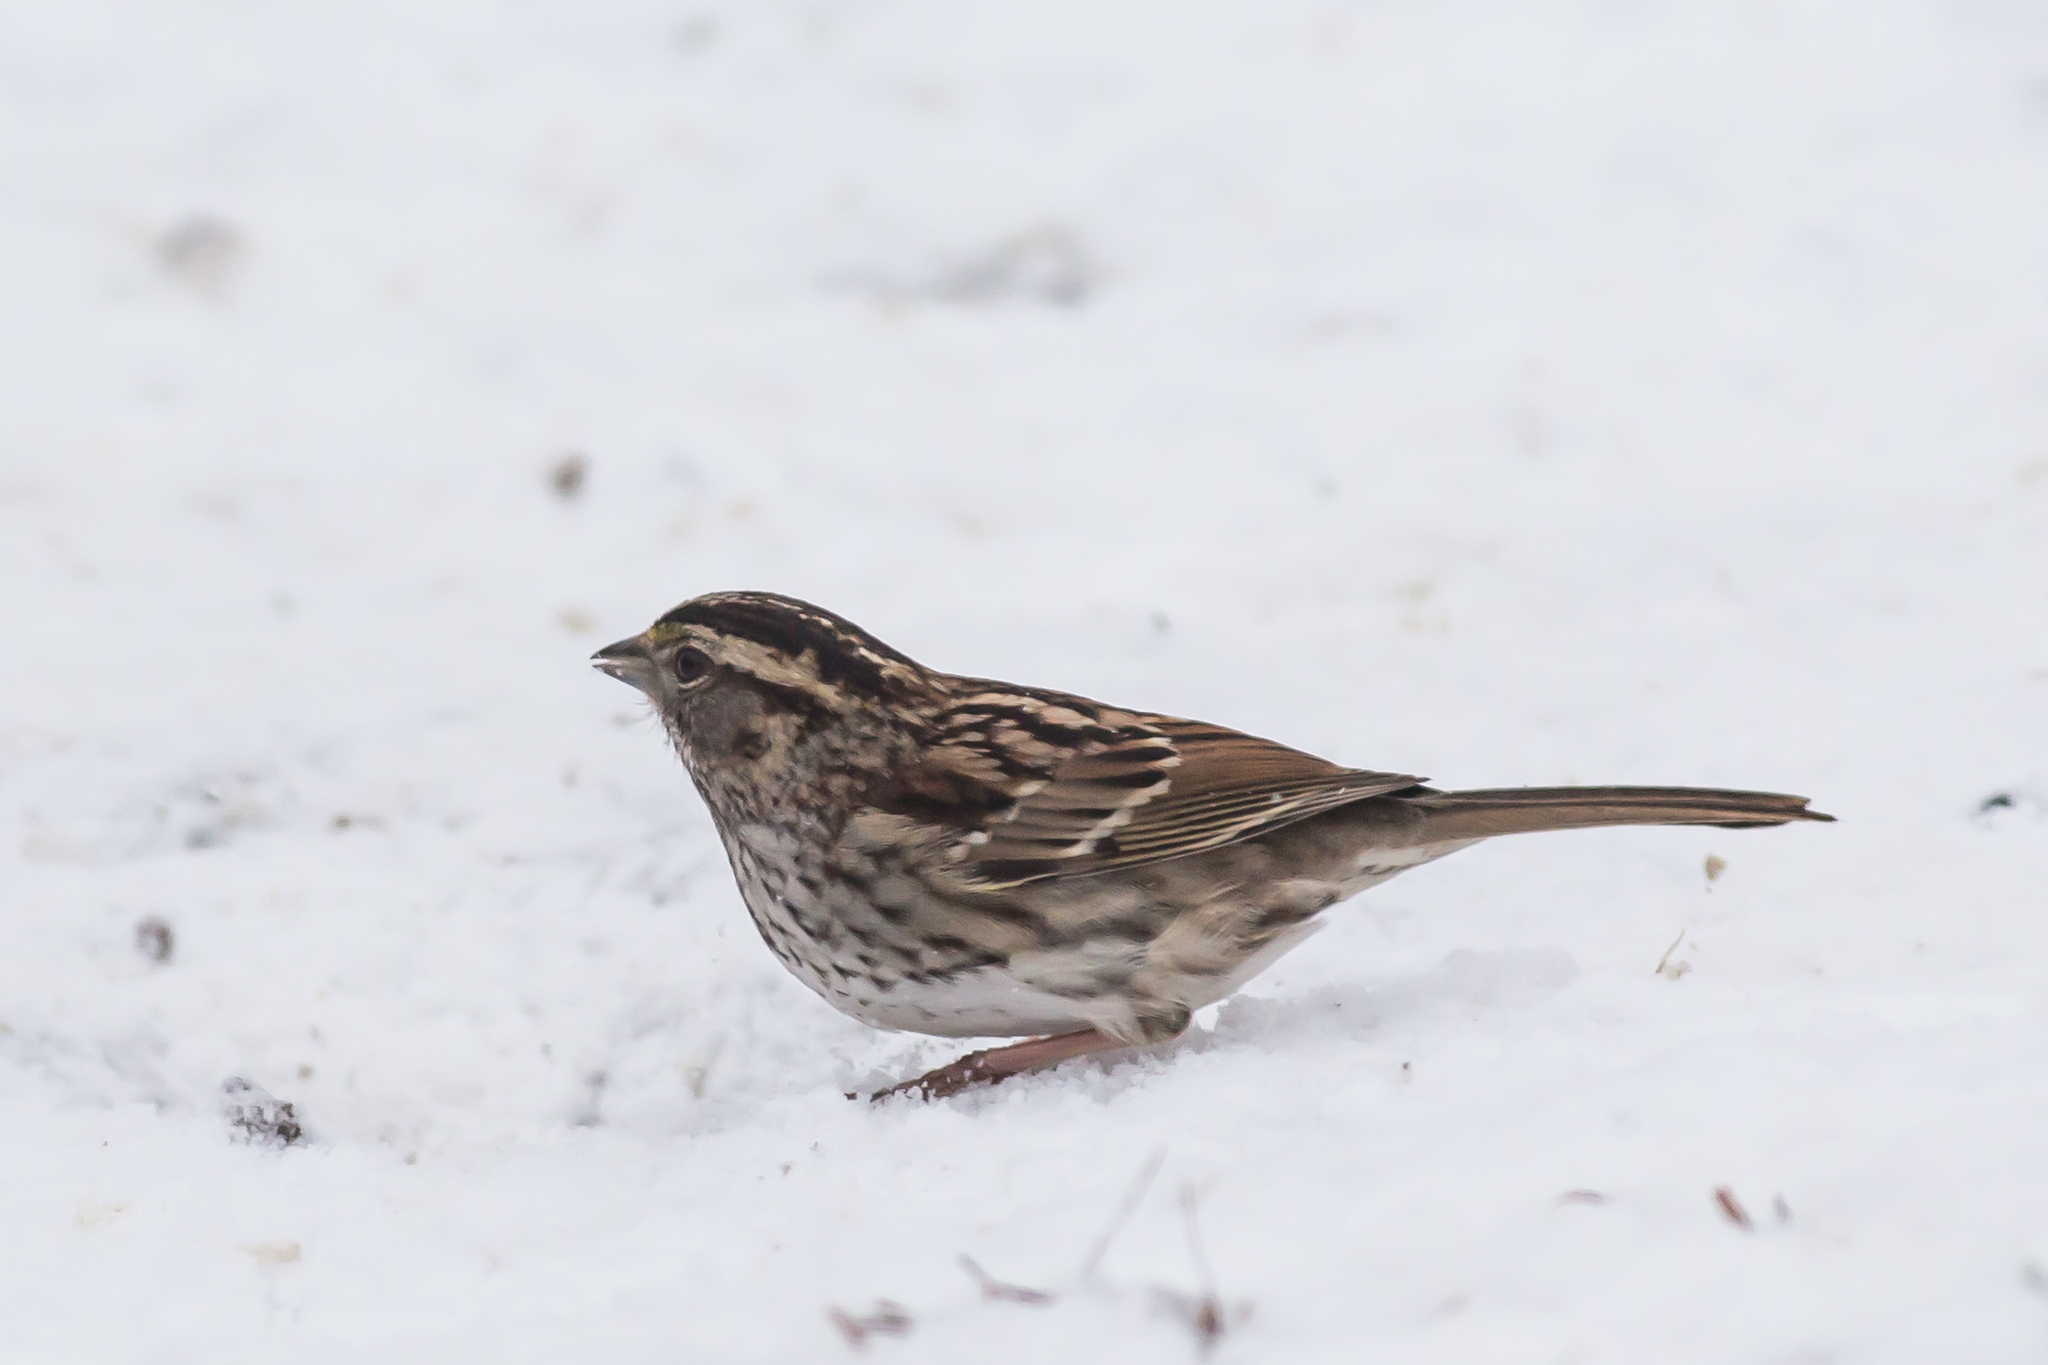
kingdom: Animalia
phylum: Chordata
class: Aves
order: Passeriformes
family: Passerellidae
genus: Zonotrichia
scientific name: Zonotrichia albicollis
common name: White-throated sparrow
